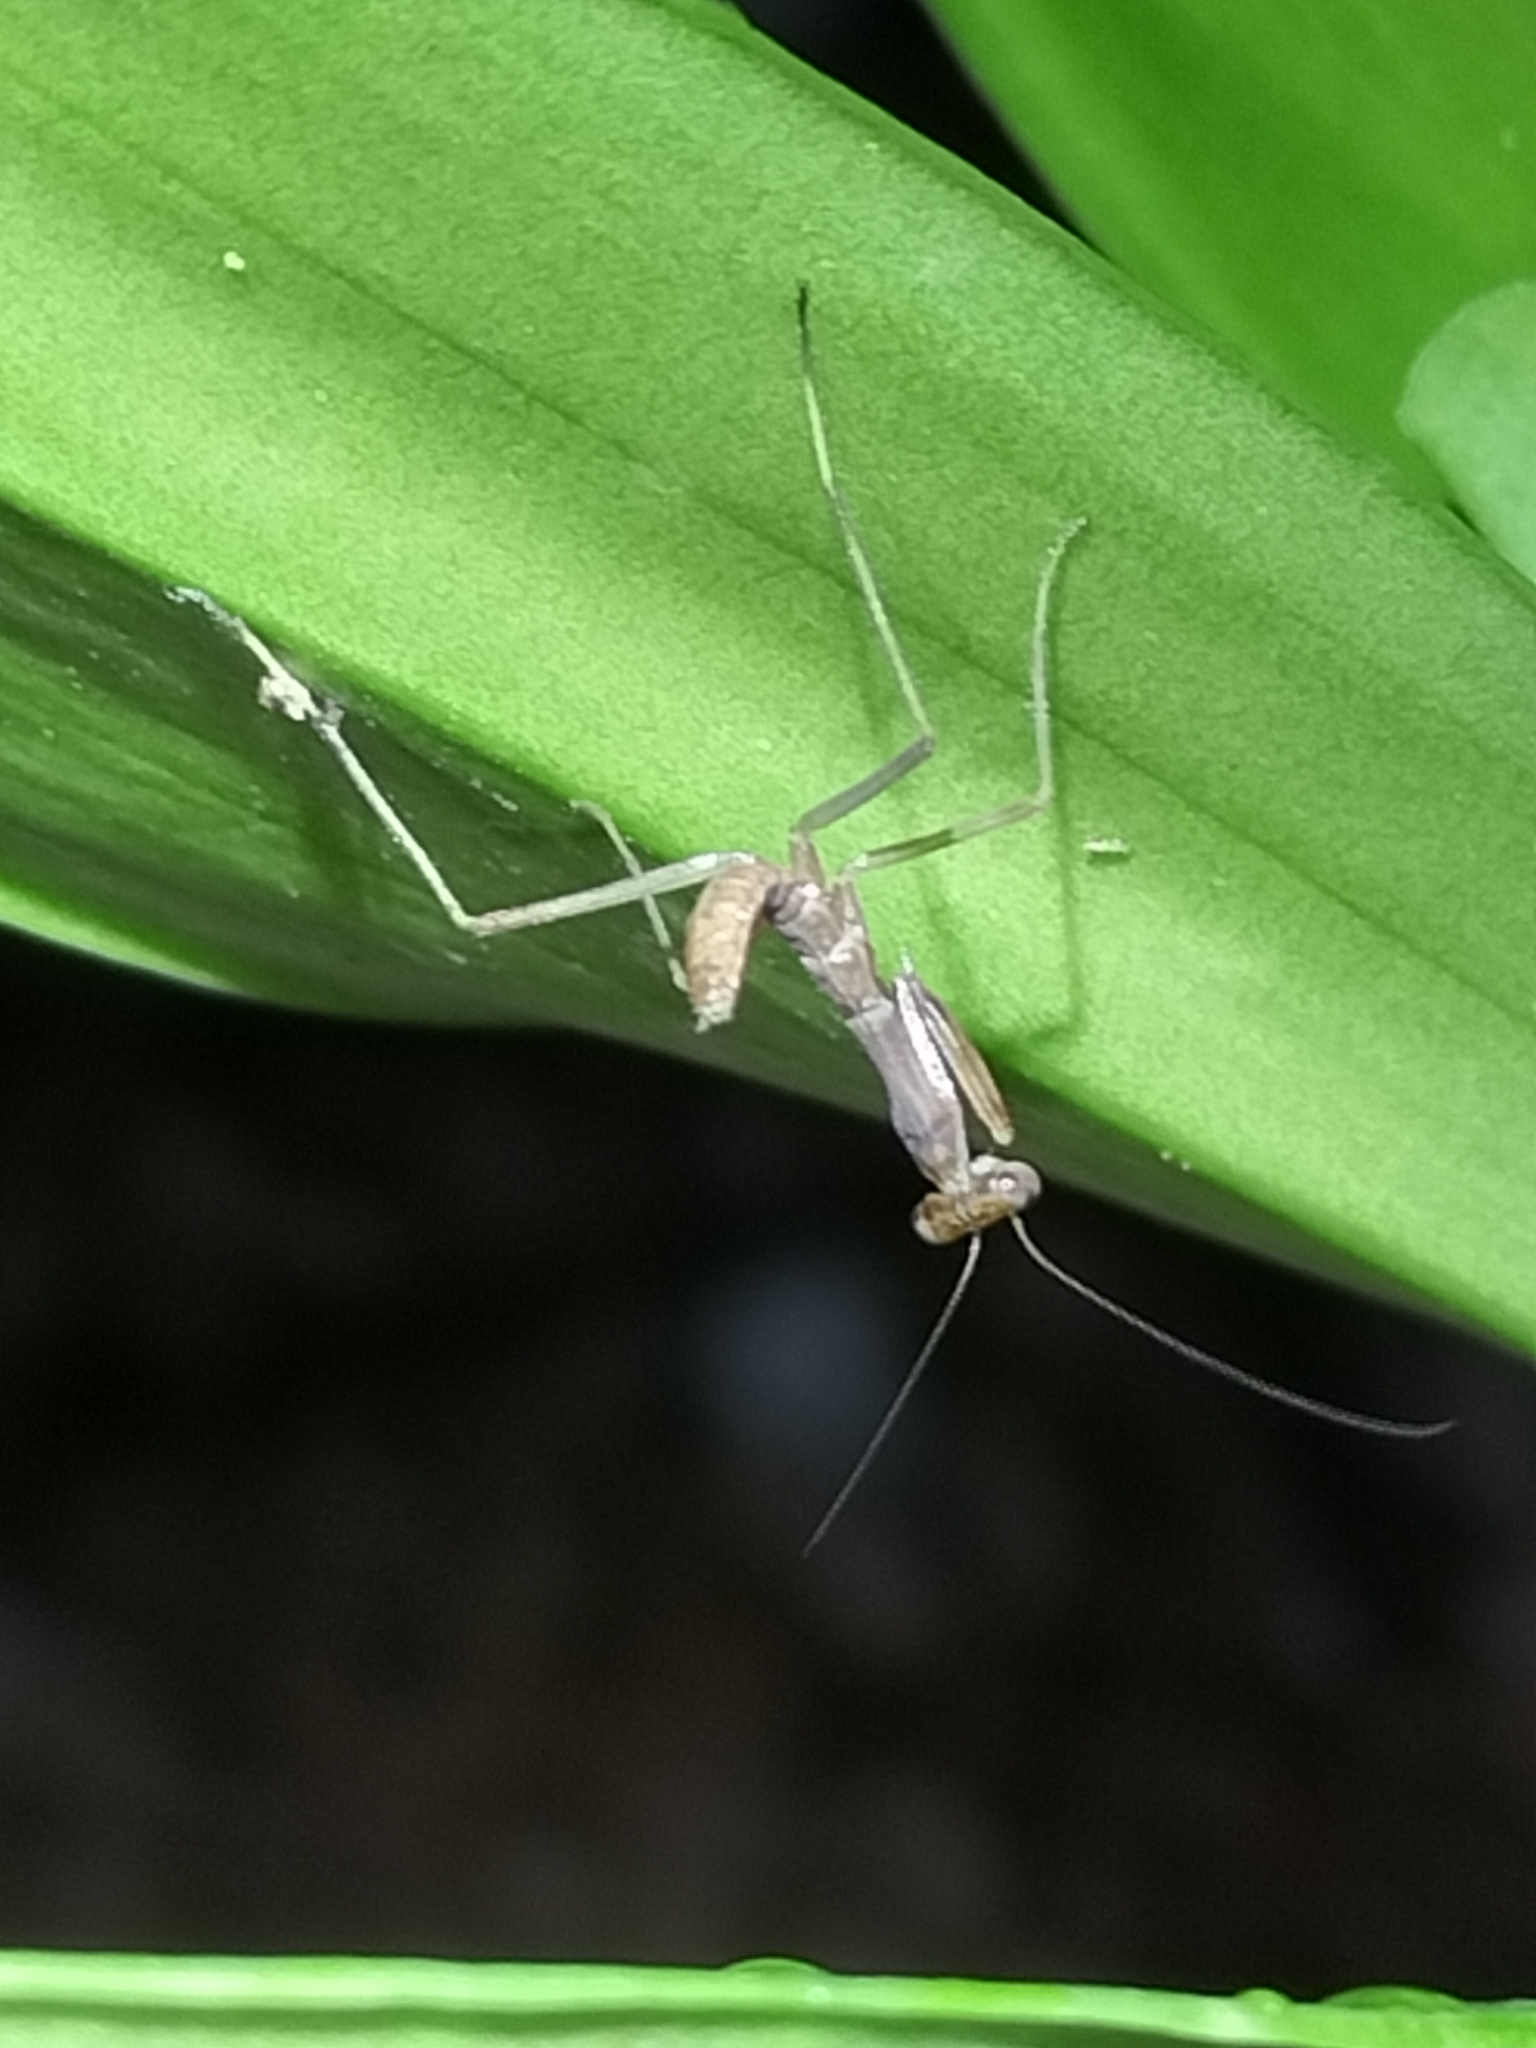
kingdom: Animalia
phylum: Arthropoda
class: Insecta
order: Mantodea
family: Mantidae
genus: Hierodula
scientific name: Hierodula majuscula
